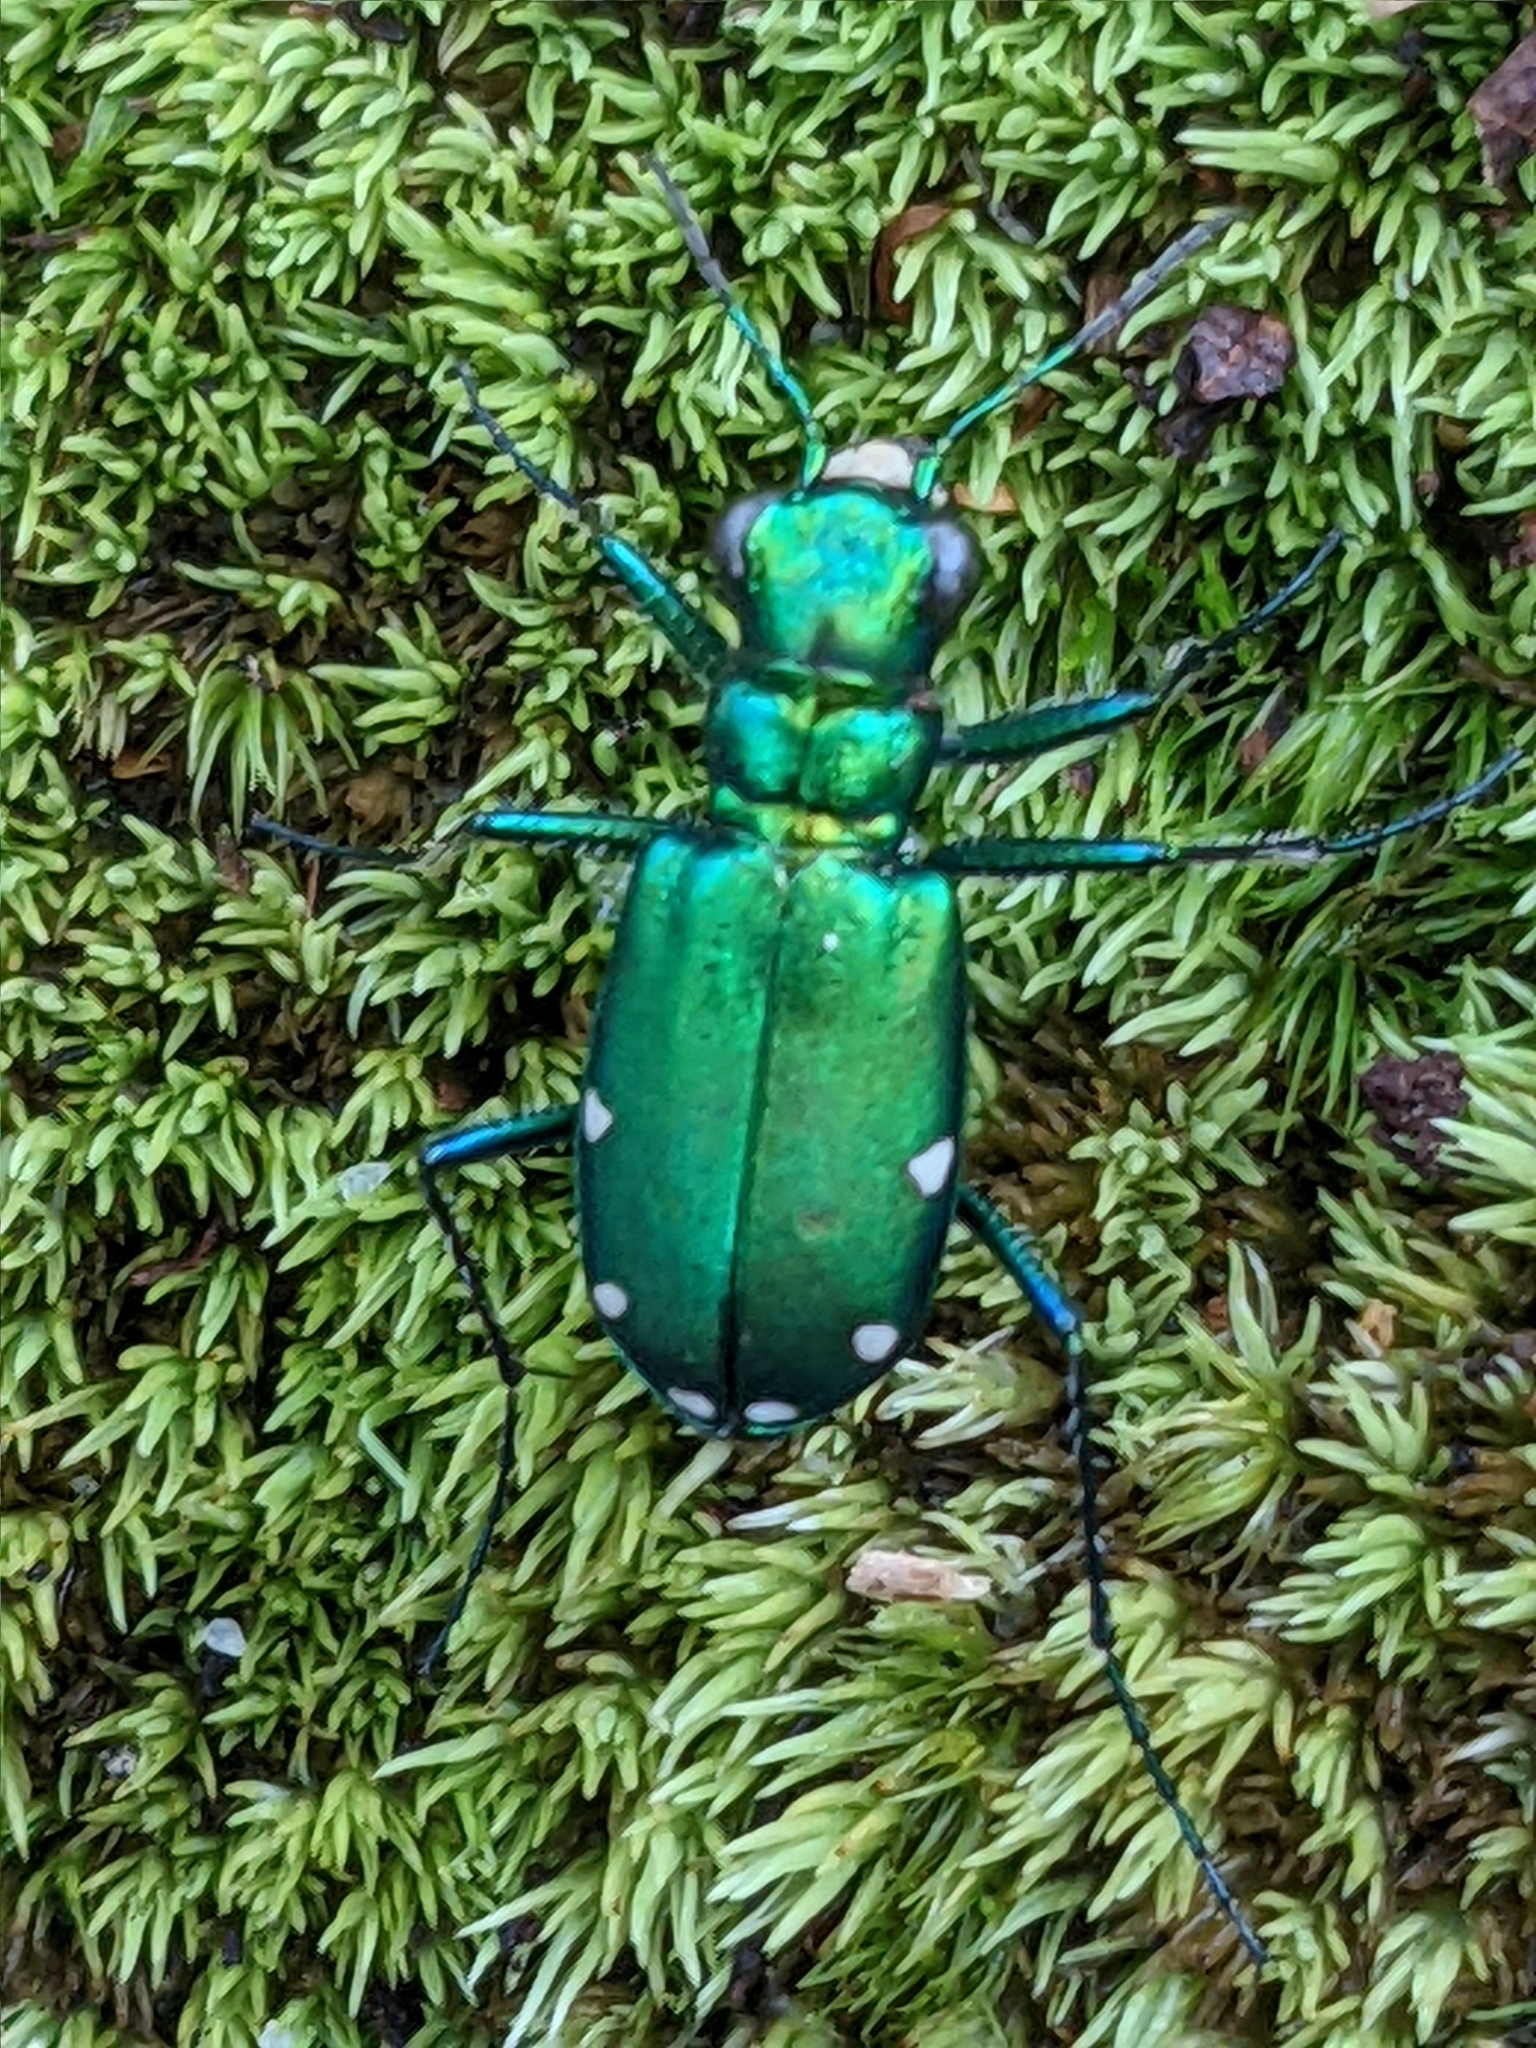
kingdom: Animalia
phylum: Arthropoda
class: Insecta
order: Coleoptera
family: Carabidae
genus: Cicindela
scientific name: Cicindela sexguttata
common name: Six-spotted tiger beetle
